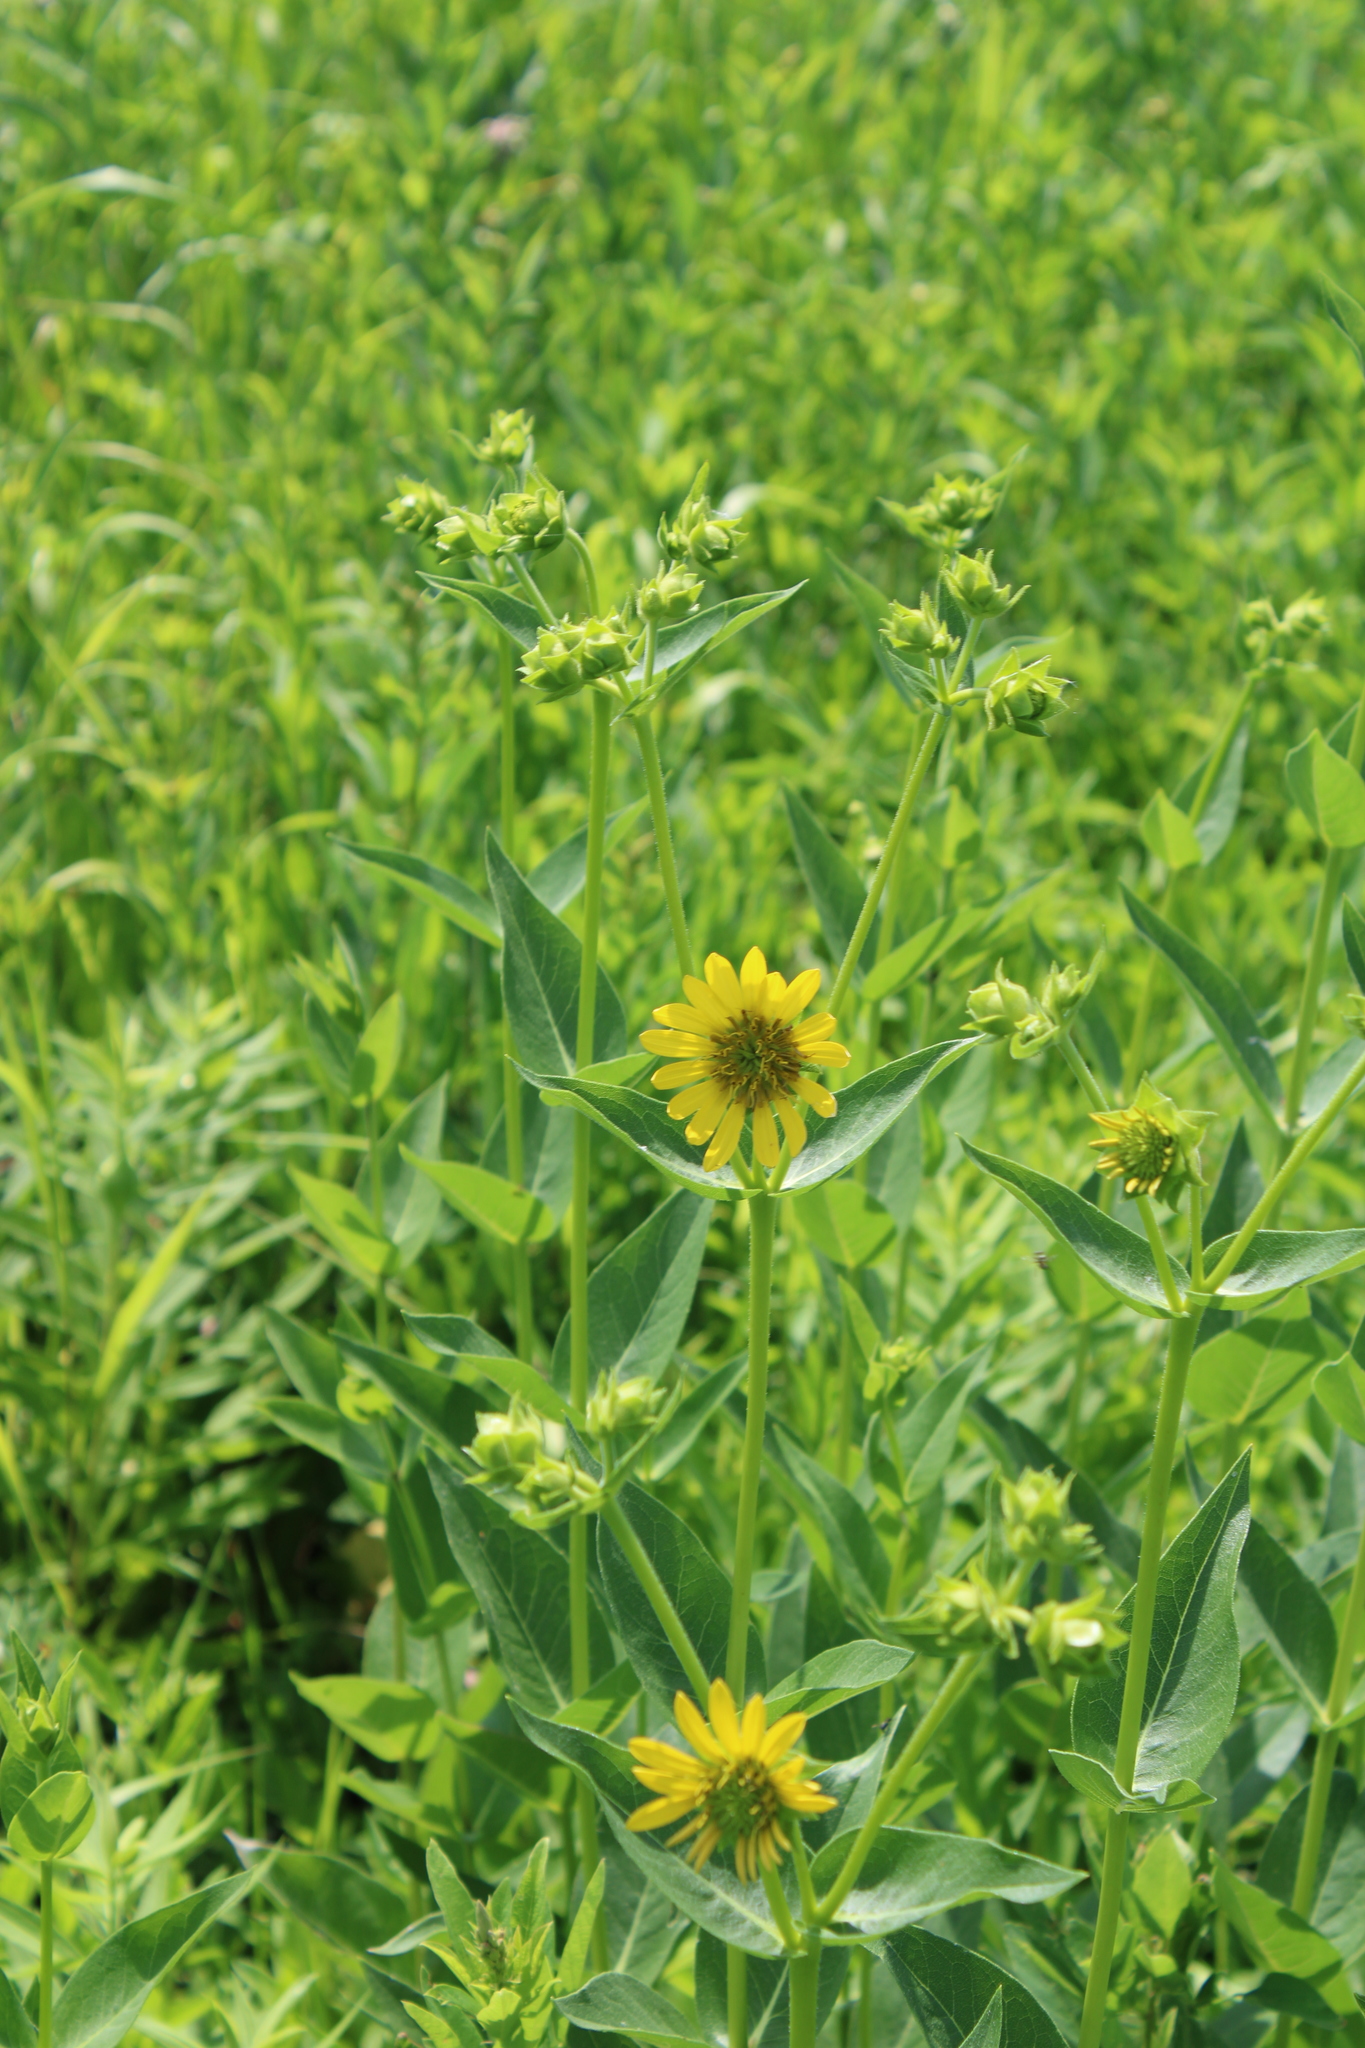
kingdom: Plantae
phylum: Tracheophyta
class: Magnoliopsida
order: Asterales
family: Asteraceae
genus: Silphium
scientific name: Silphium integrifolium
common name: Whole-leaf rosinweed
